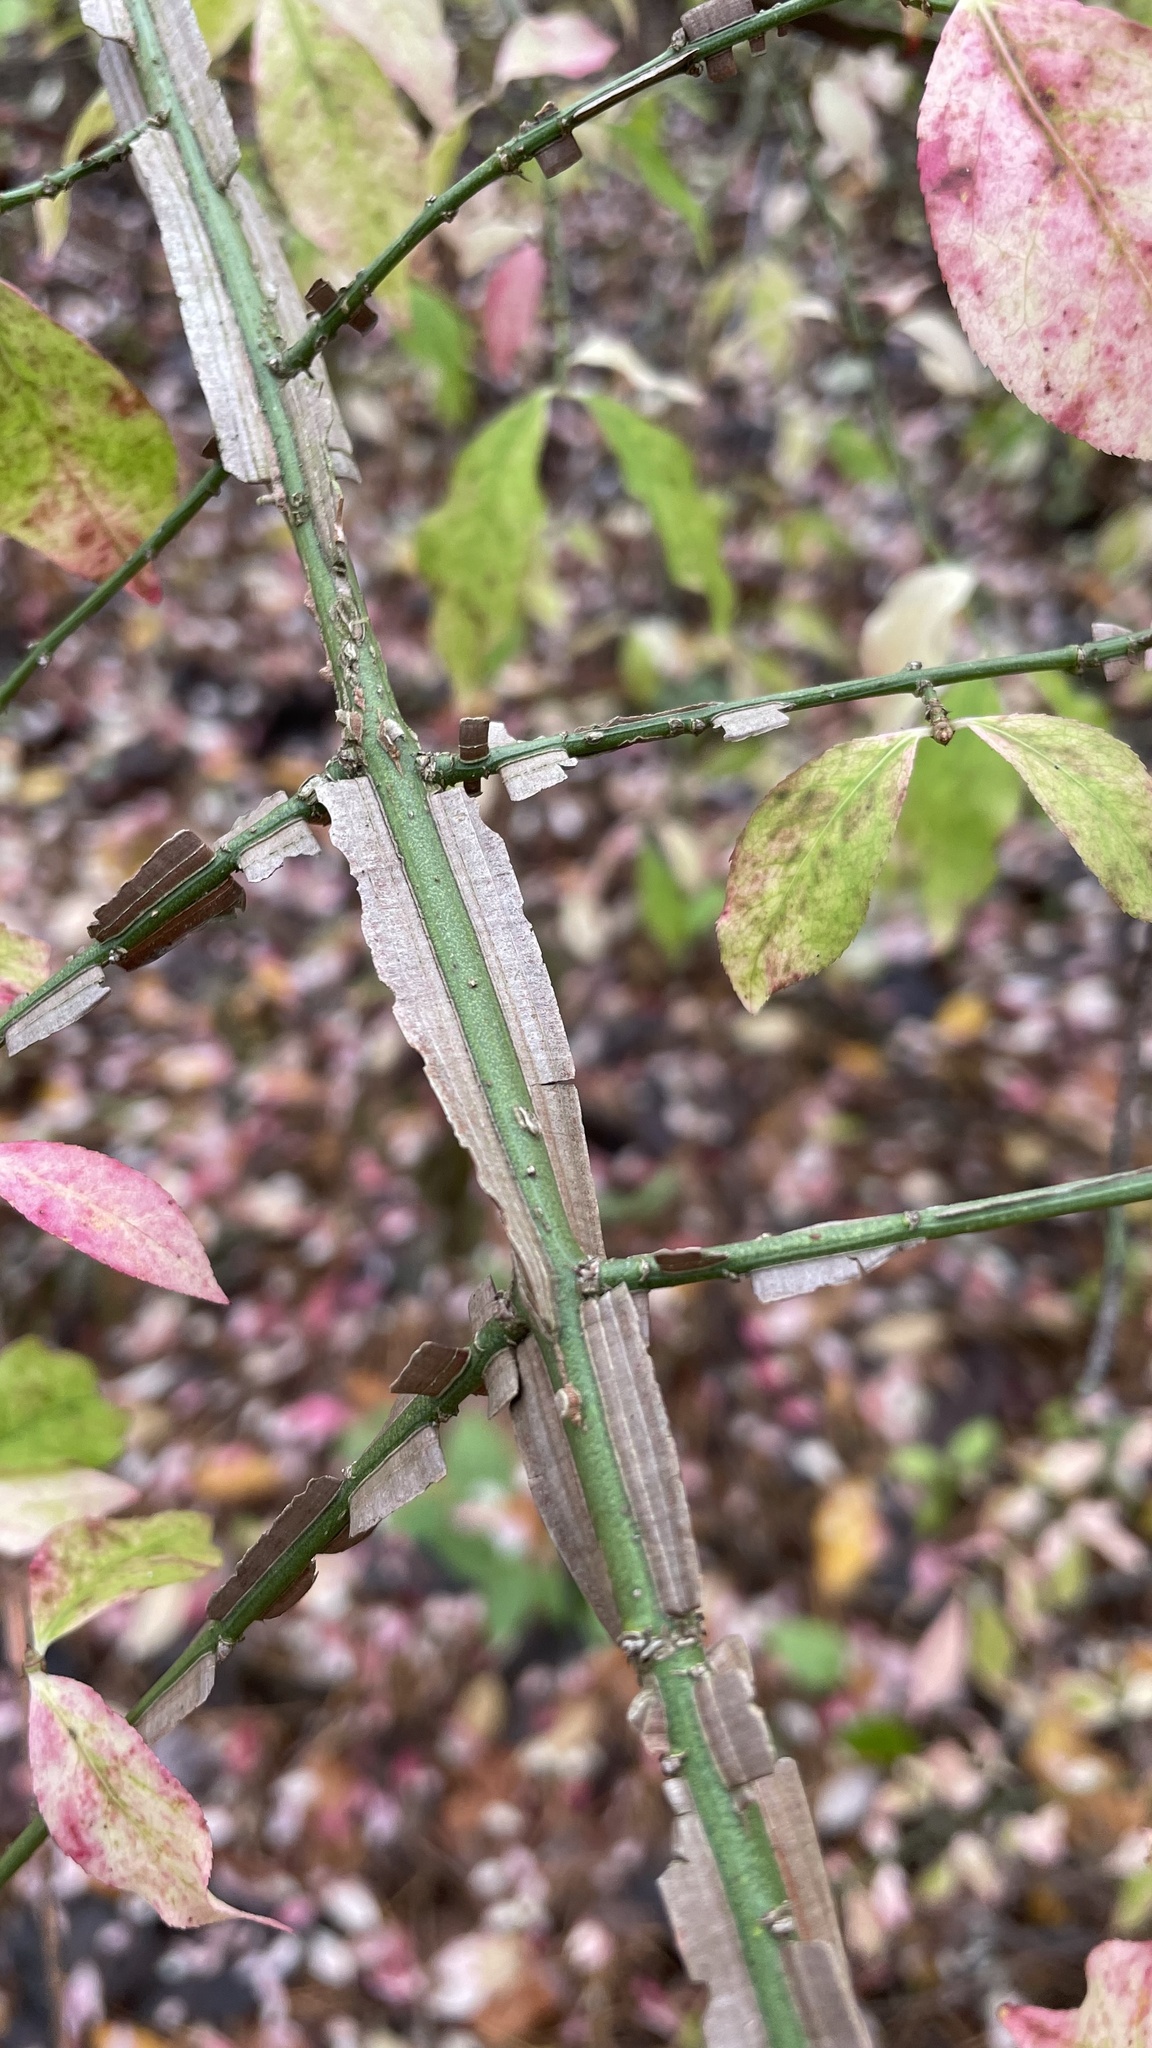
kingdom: Plantae
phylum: Tracheophyta
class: Magnoliopsida
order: Celastrales
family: Celastraceae
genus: Euonymus
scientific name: Euonymus alatus
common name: Winged euonymus
